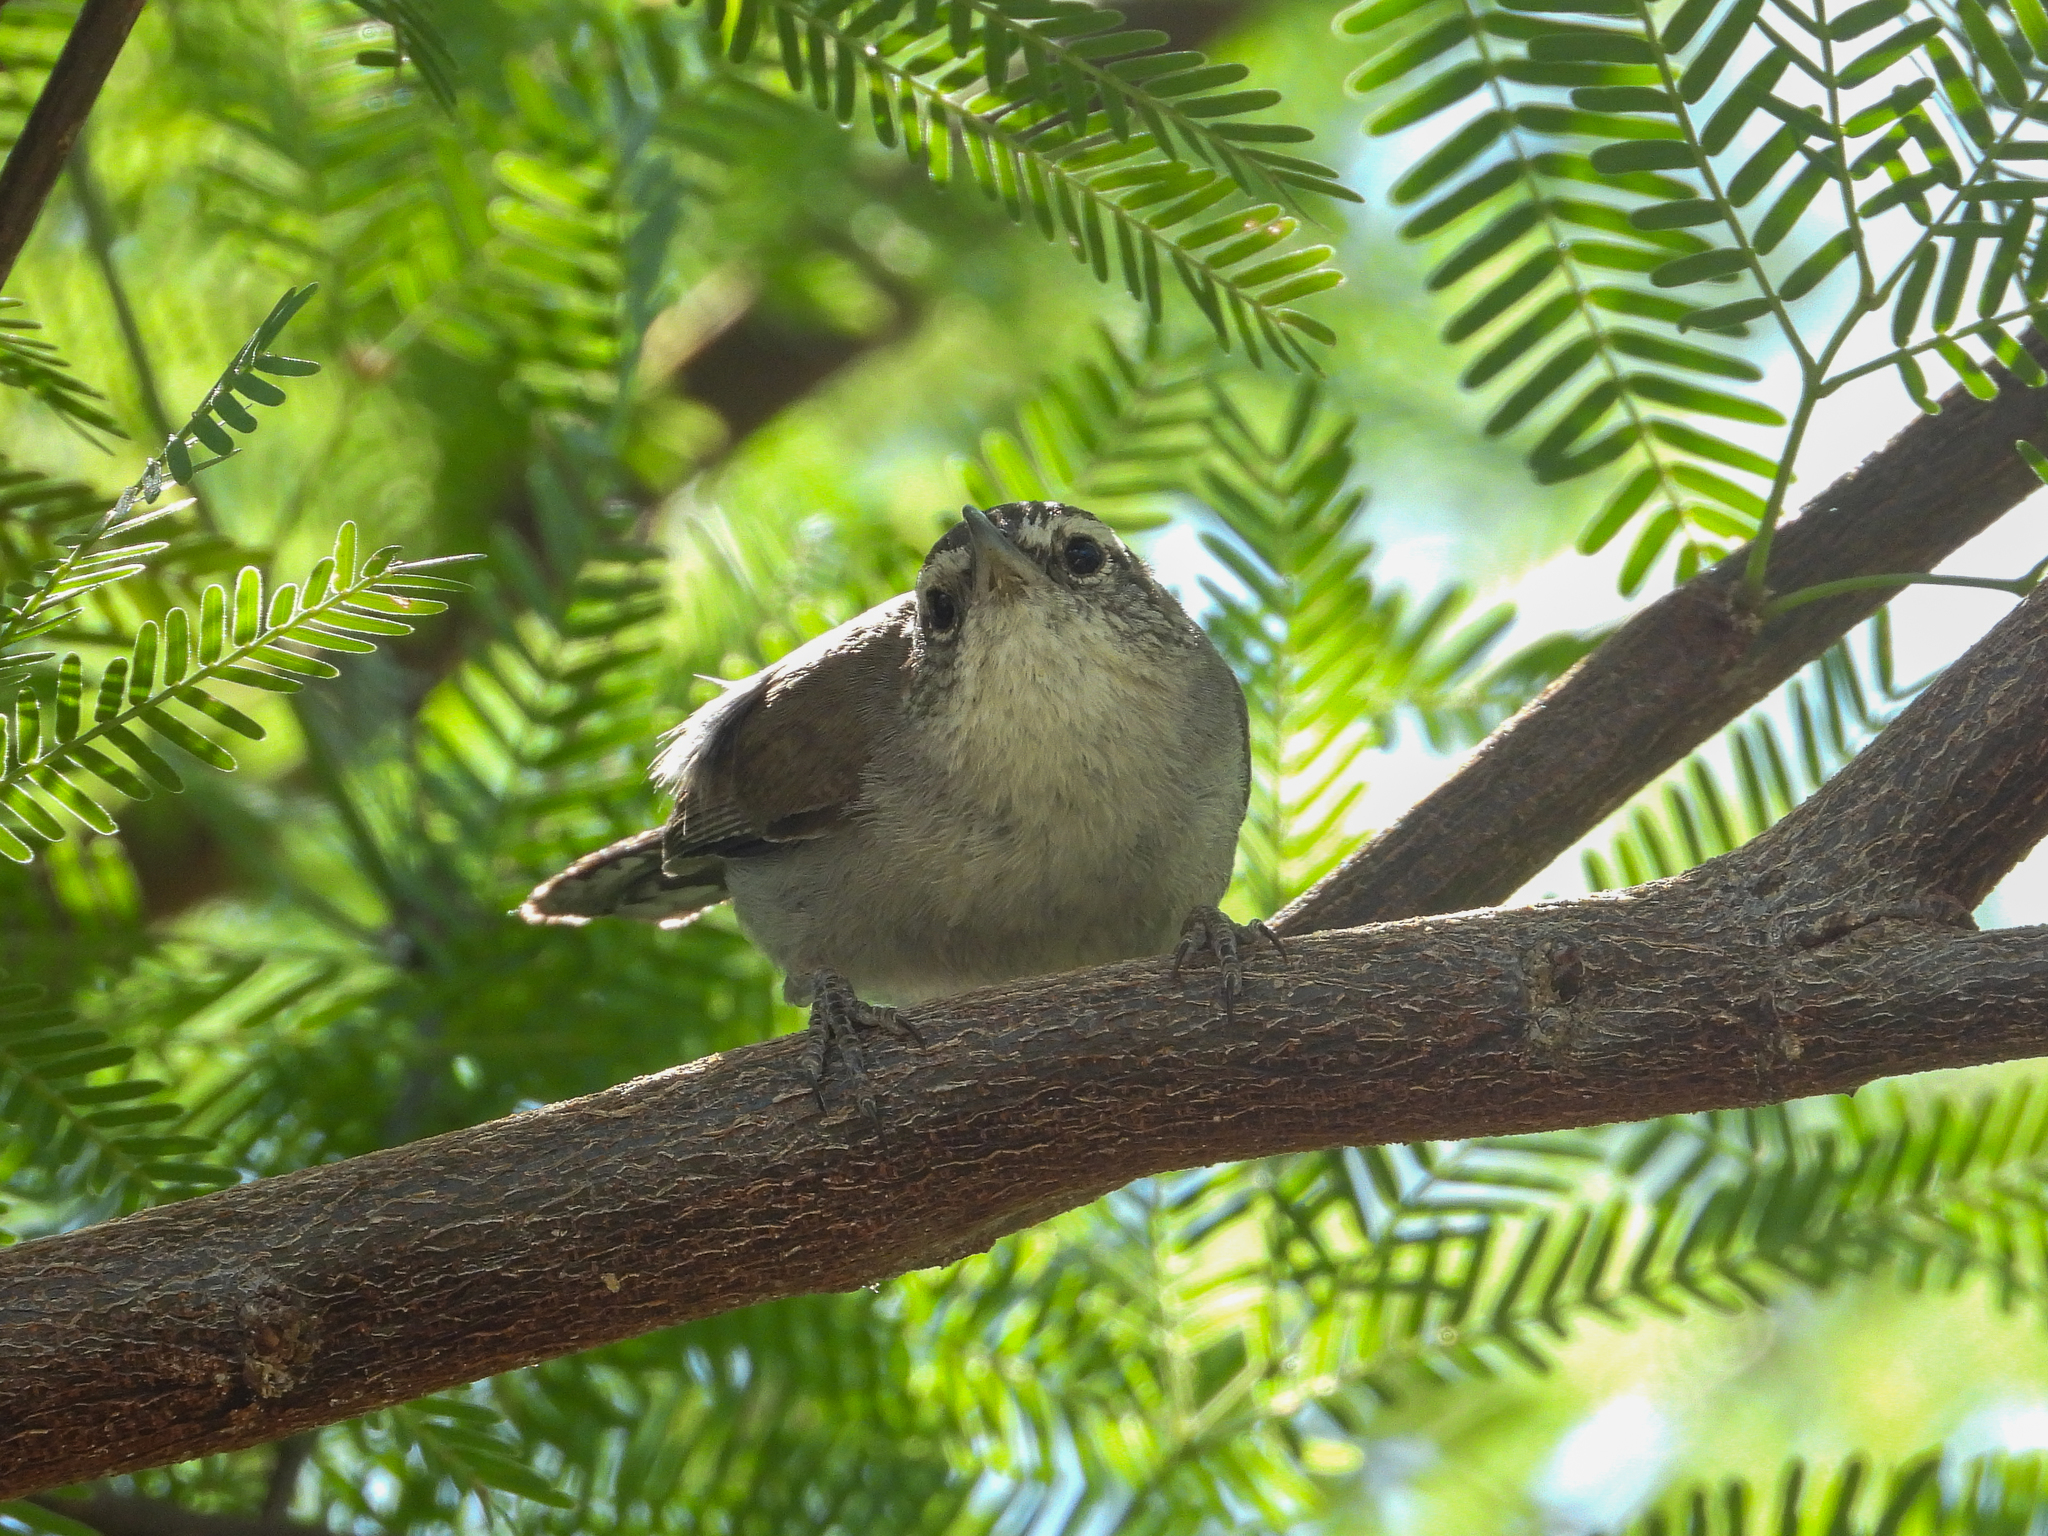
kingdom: Animalia
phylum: Chordata
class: Aves
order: Passeriformes
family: Troglodytidae
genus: Thryomanes
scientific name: Thryomanes bewickii
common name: Bewick's wren
